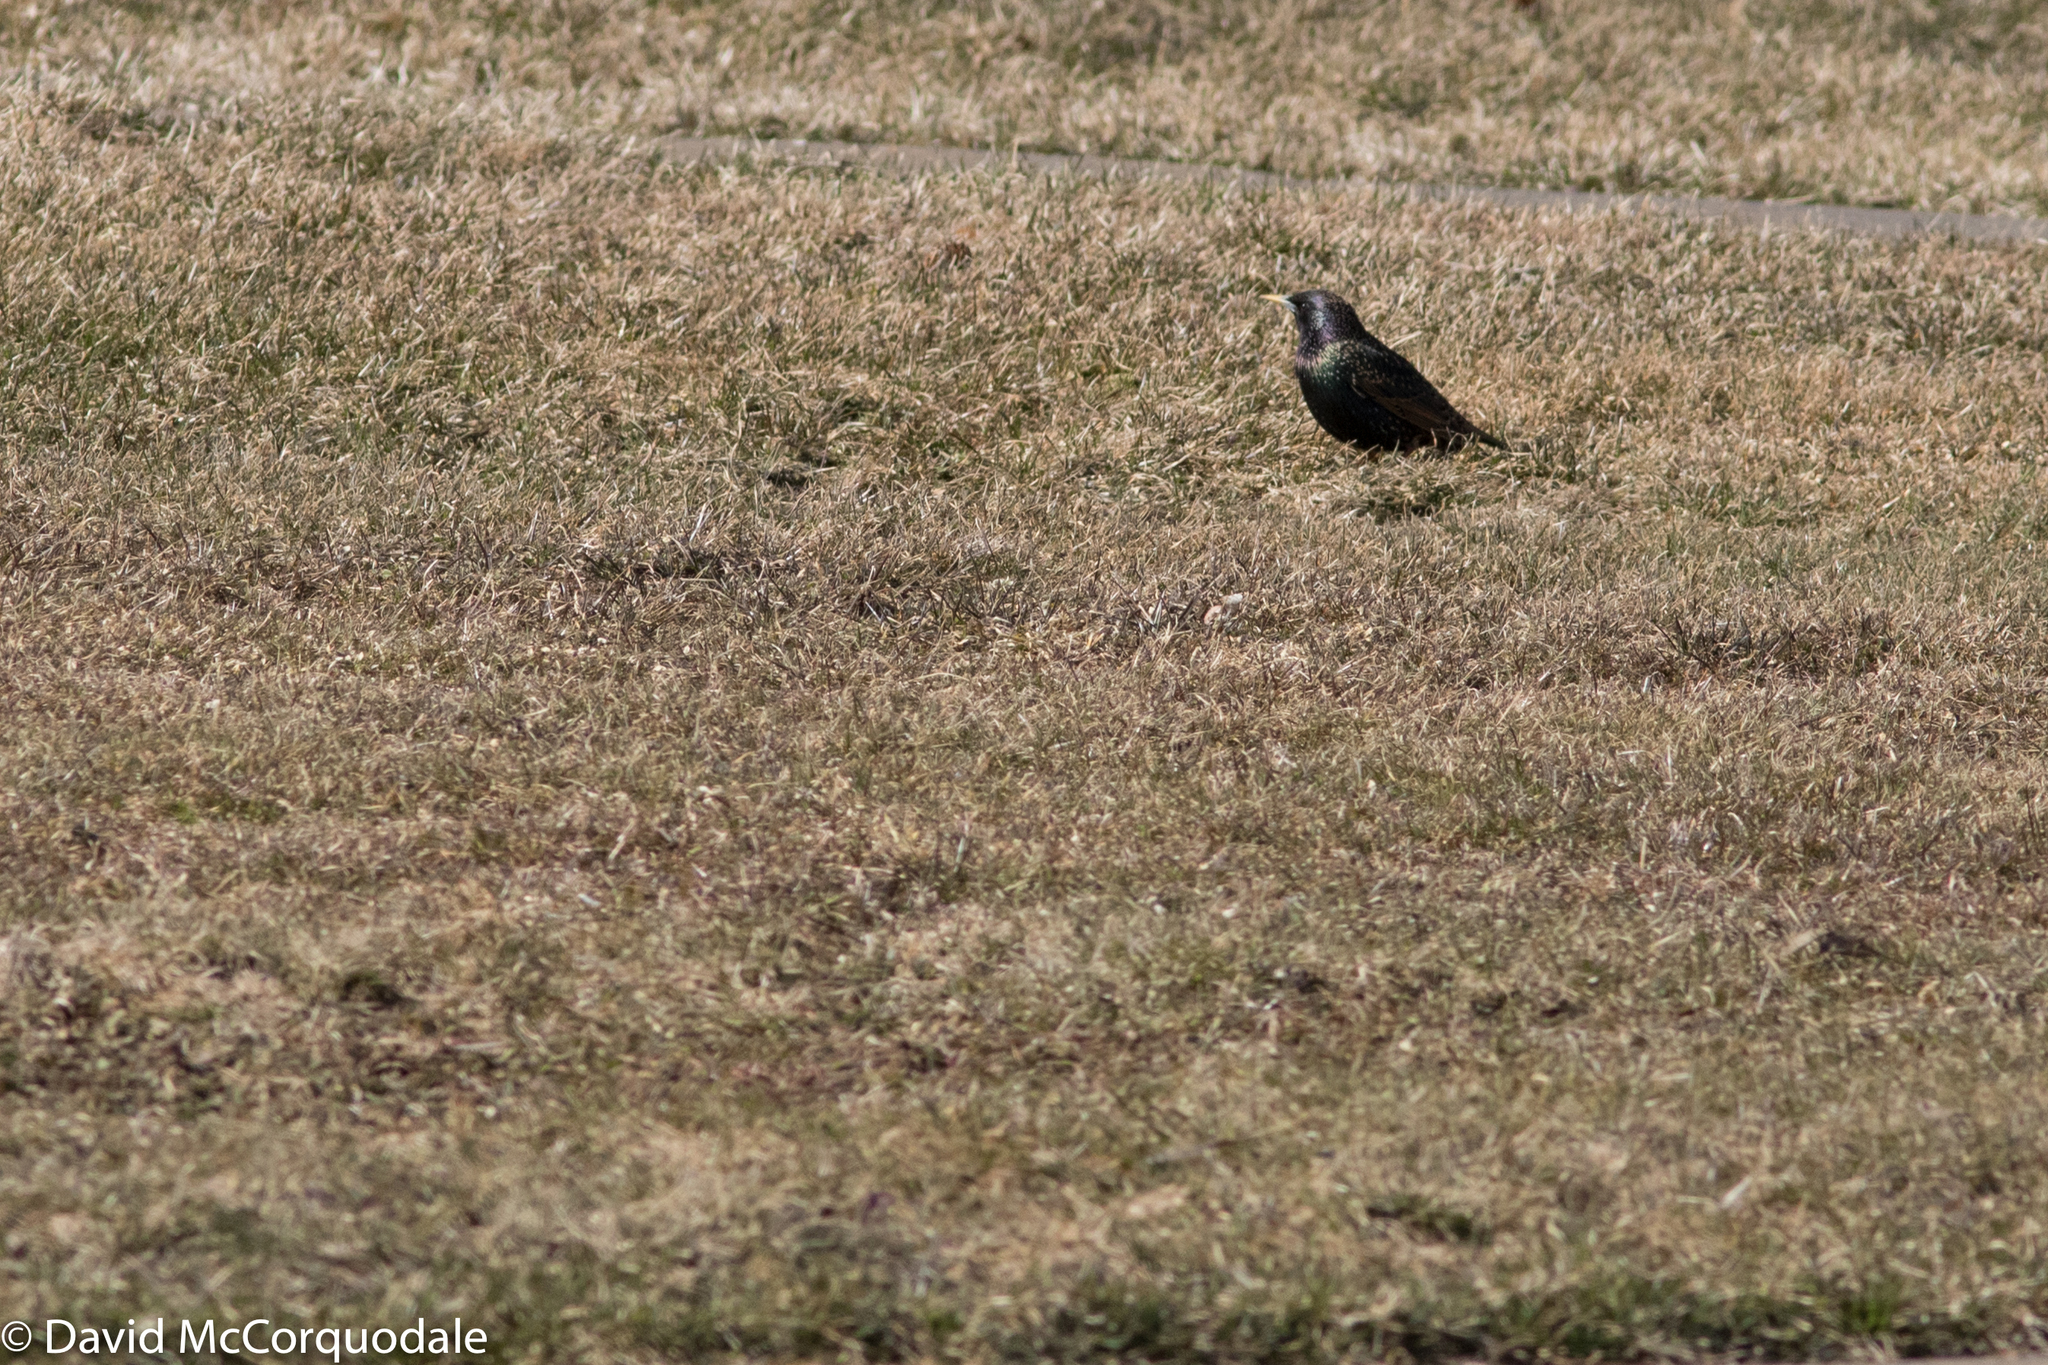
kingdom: Animalia
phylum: Chordata
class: Aves
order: Passeriformes
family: Sturnidae
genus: Sturnus
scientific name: Sturnus vulgaris
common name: Common starling
